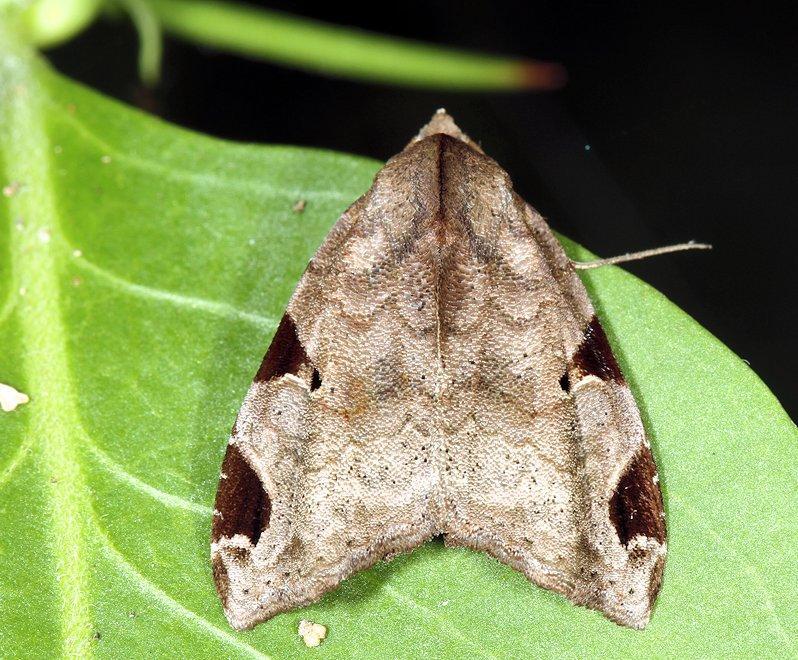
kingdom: Animalia
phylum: Arthropoda
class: Insecta
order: Lepidoptera
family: Noctuidae
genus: Androlymnia
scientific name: Androlymnia torsivena
